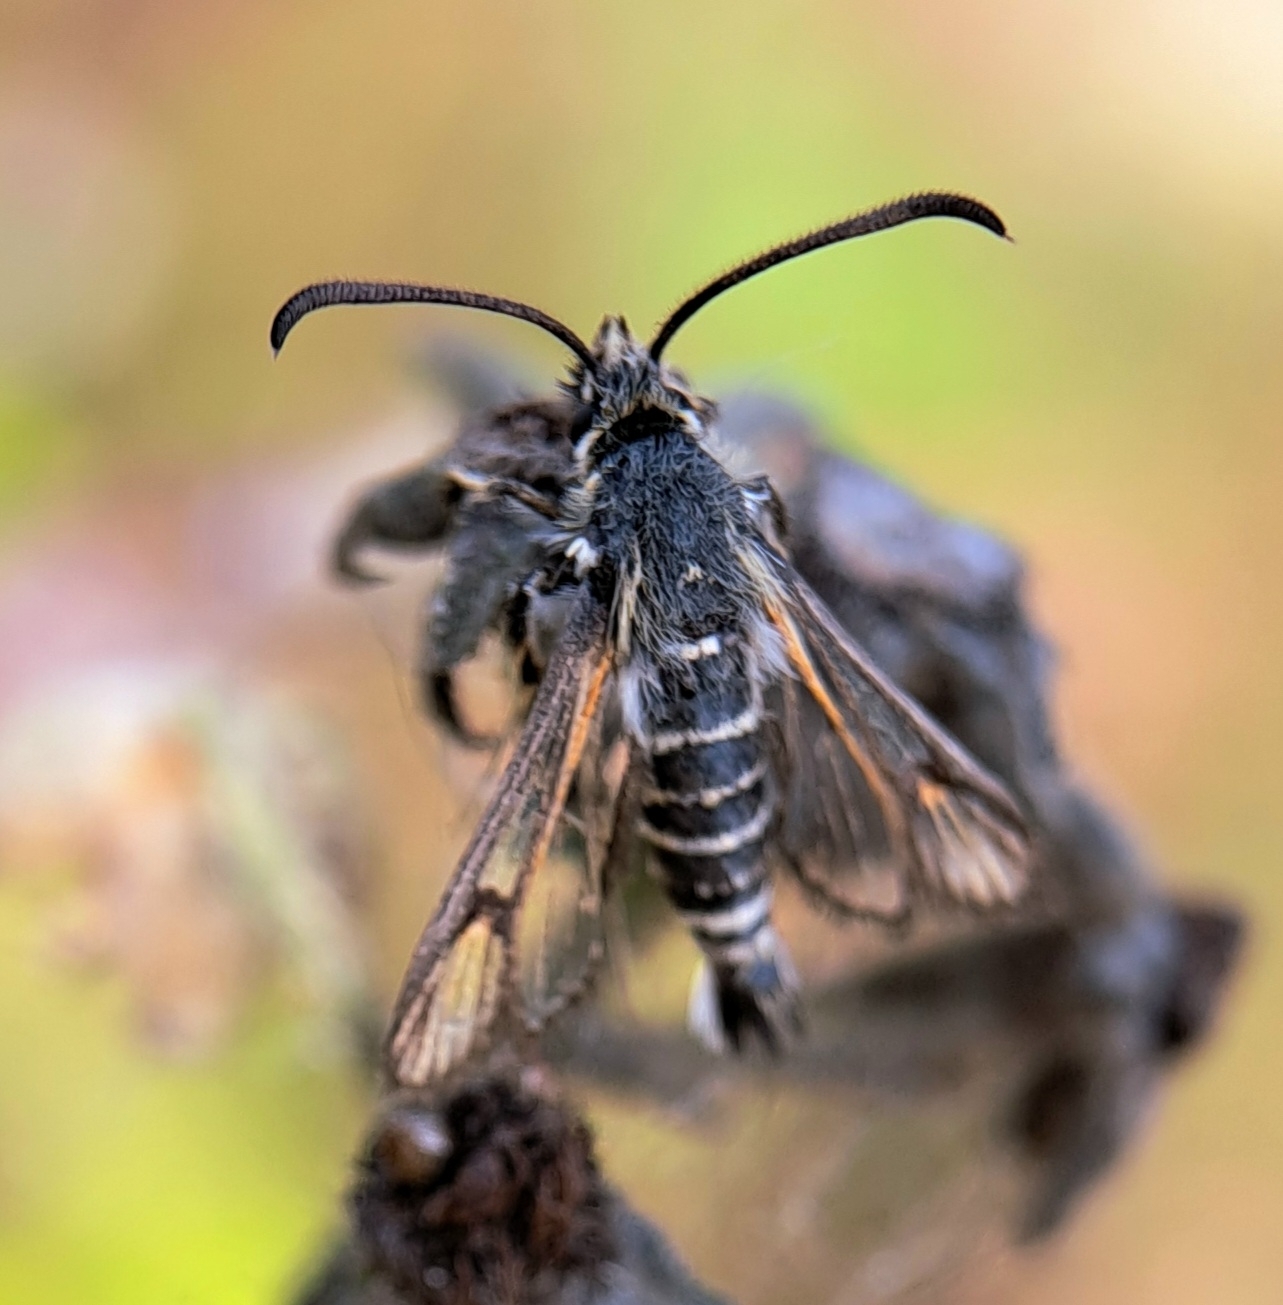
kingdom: Animalia
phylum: Arthropoda
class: Insecta
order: Lepidoptera
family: Sesiidae
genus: Bembecia
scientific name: Bembecia ichneumoniformis
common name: Six-belted clearwing
